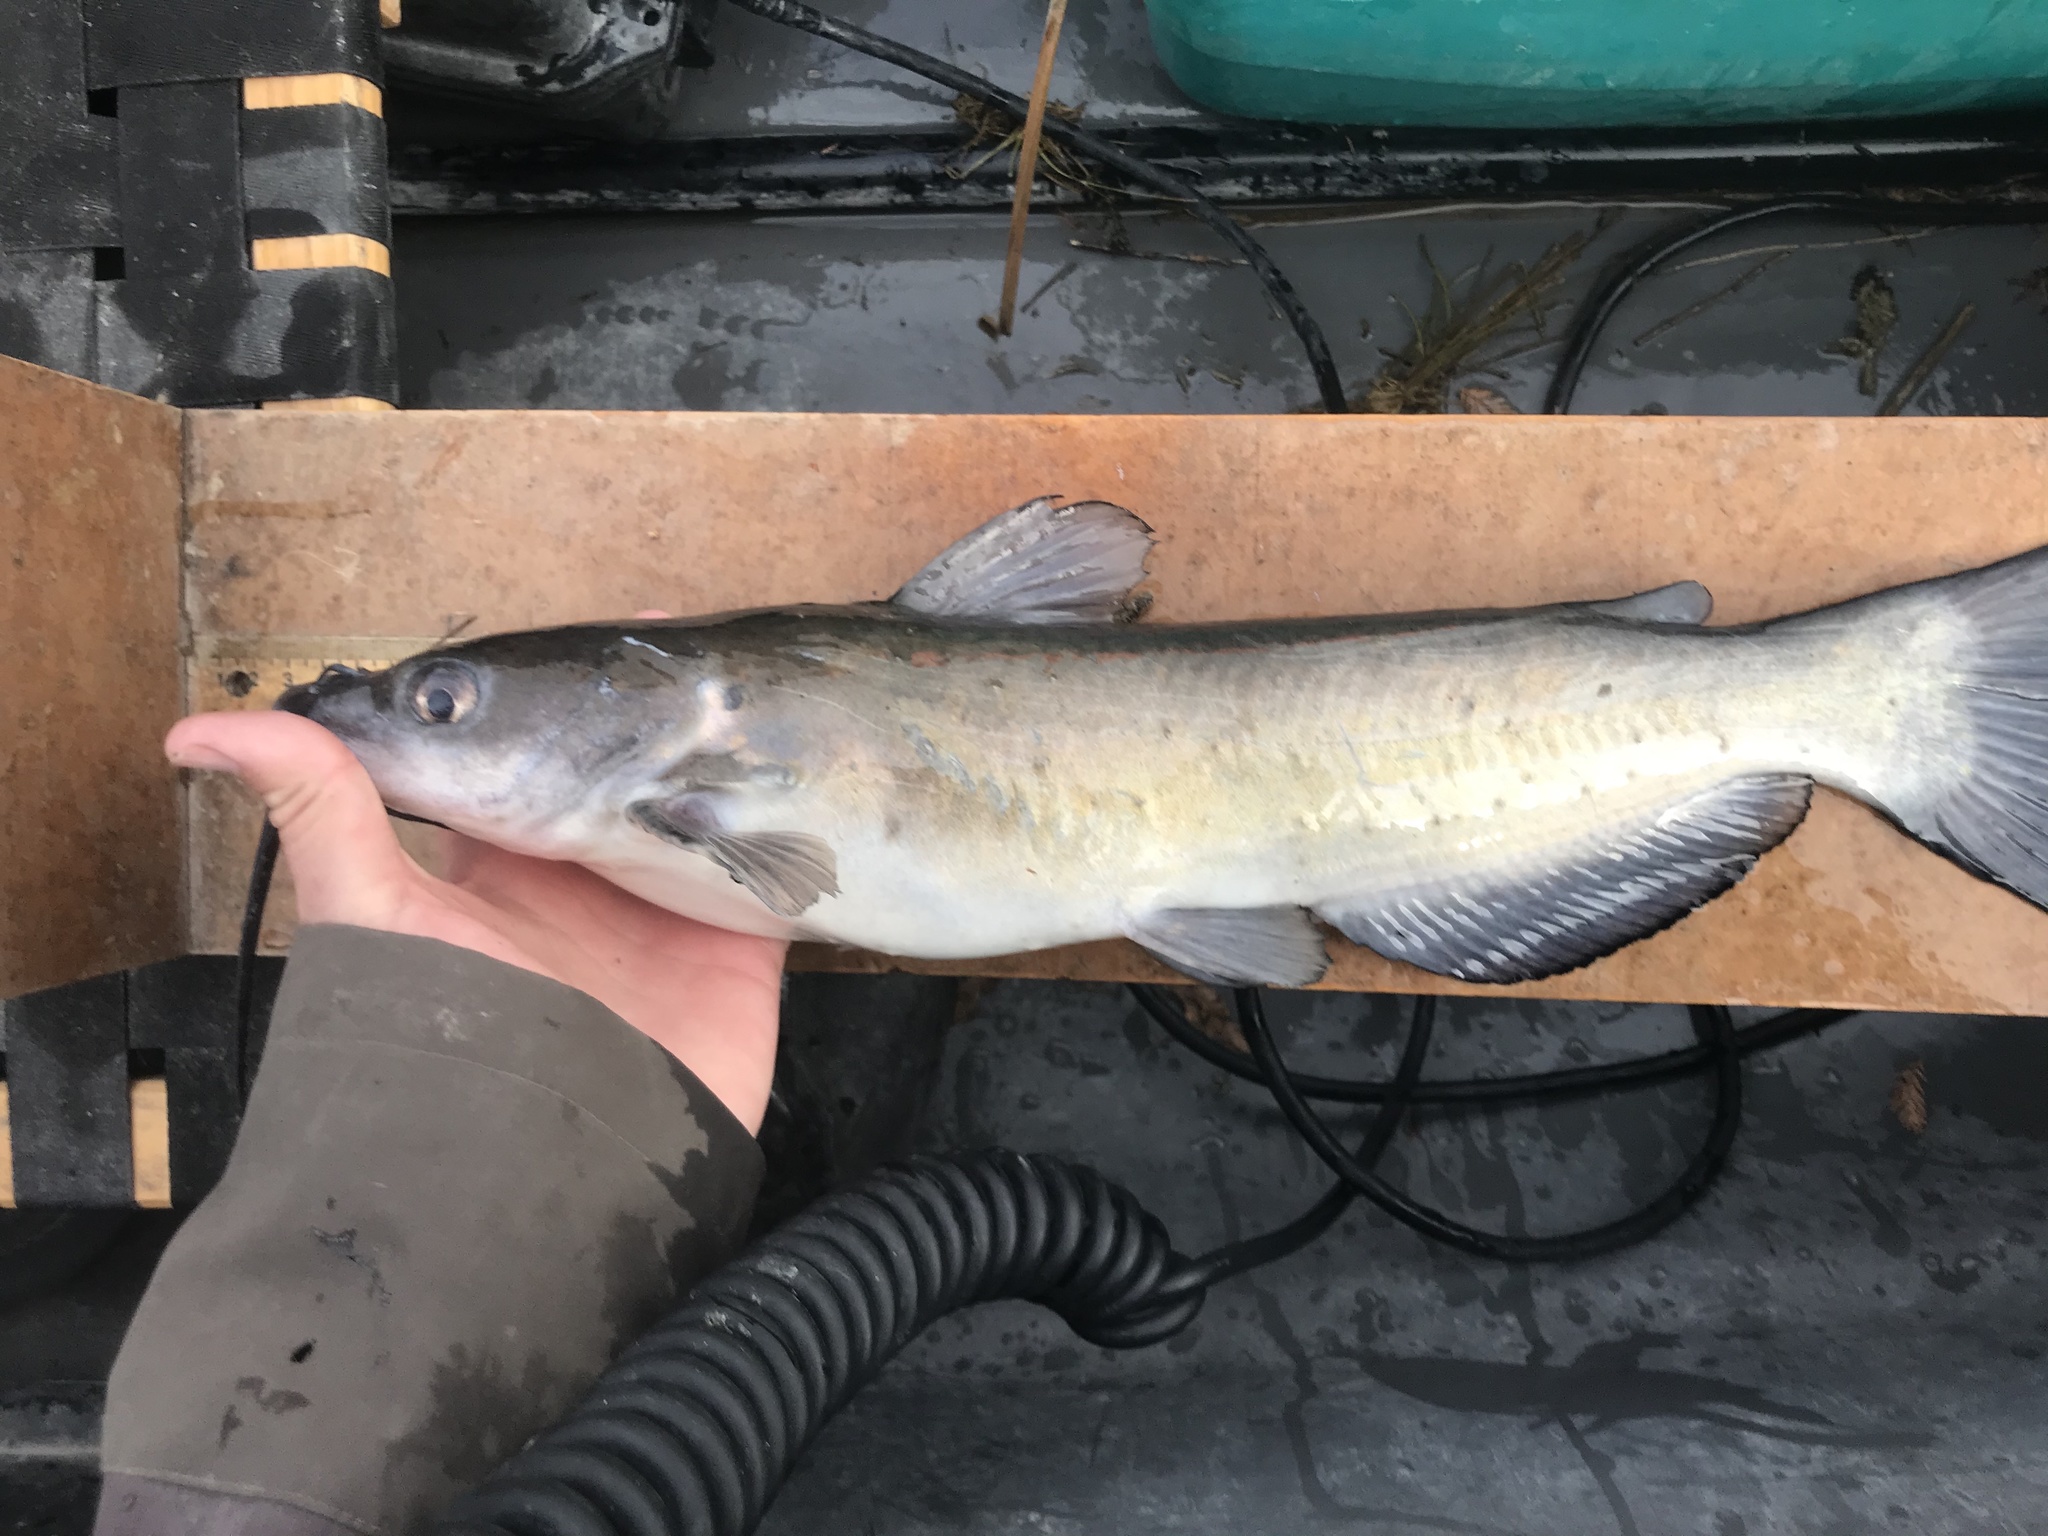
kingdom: Animalia
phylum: Chordata
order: Siluriformes
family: Ictaluridae
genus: Ictalurus
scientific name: Ictalurus punctatus
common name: Channel catfish
